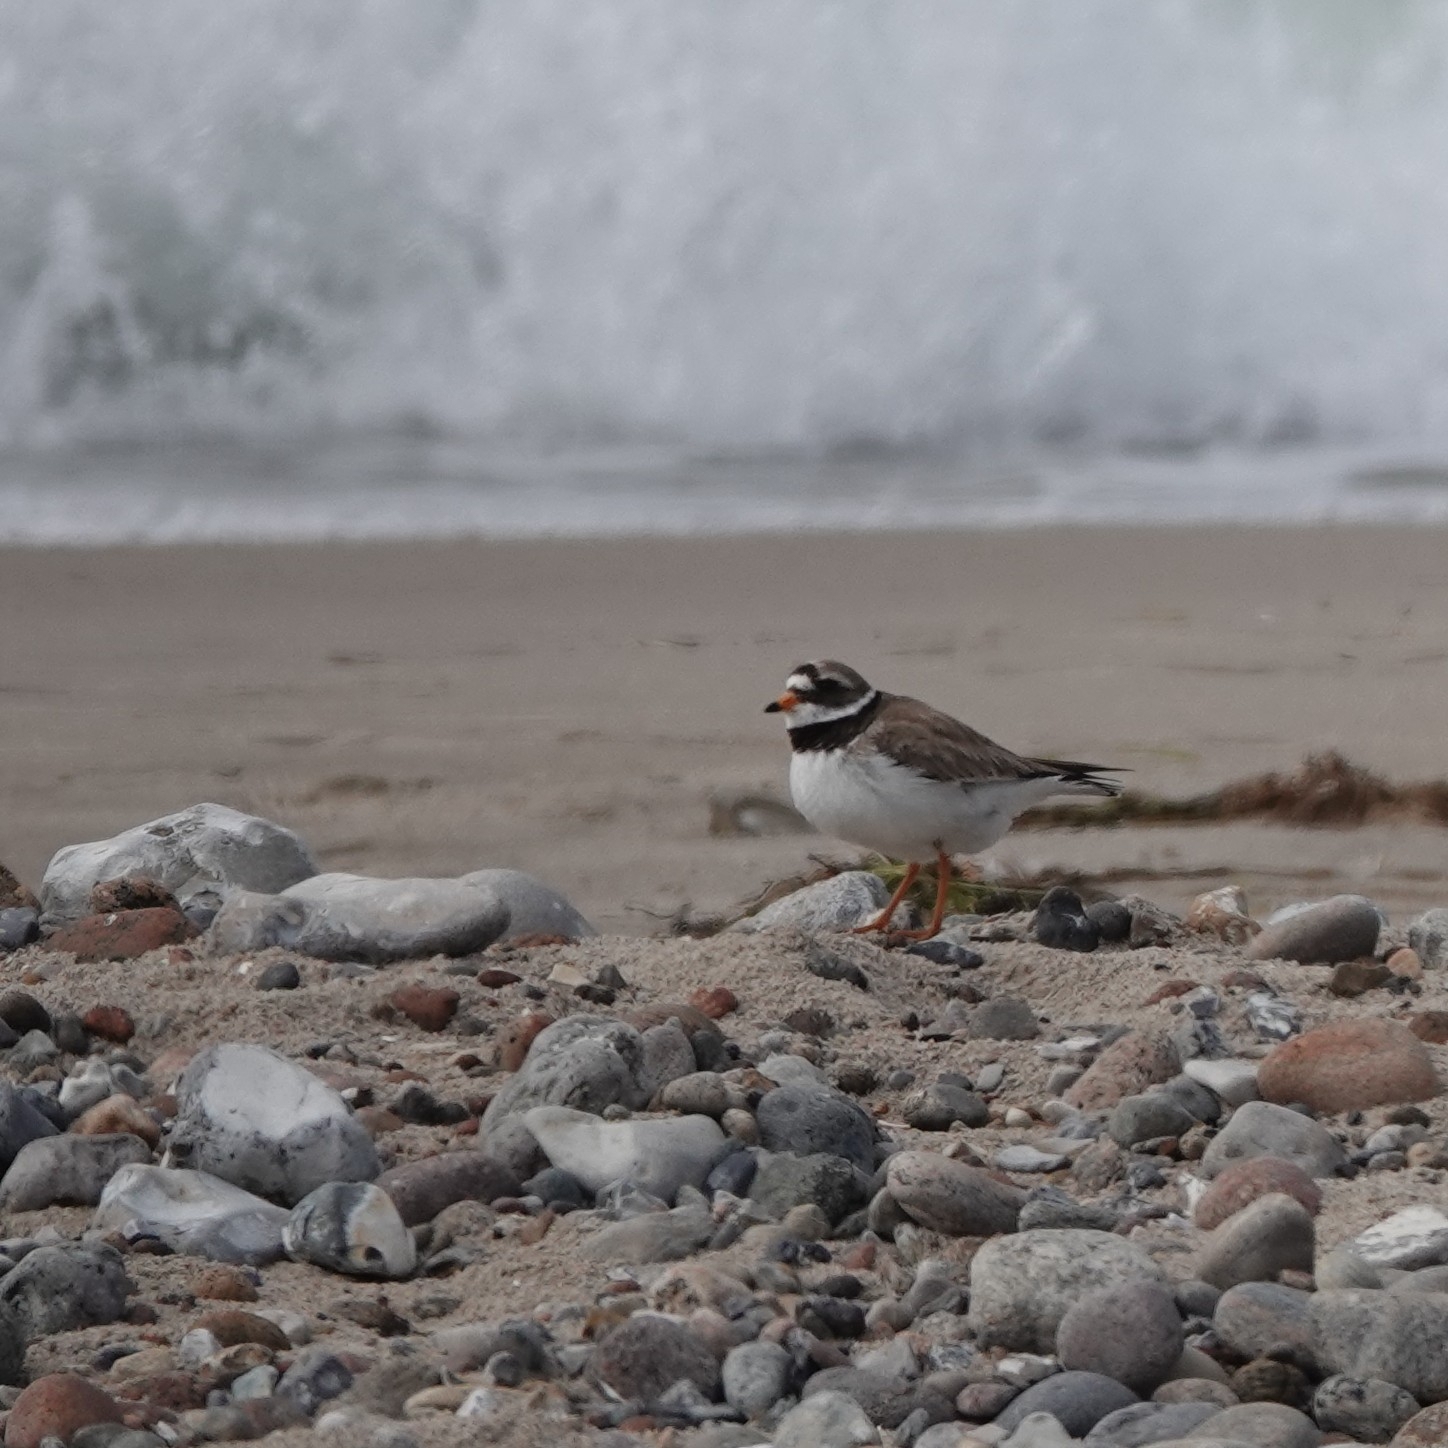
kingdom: Animalia
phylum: Chordata
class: Aves
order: Charadriiformes
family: Charadriidae
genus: Charadrius
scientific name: Charadrius hiaticula
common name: Common ringed plover
